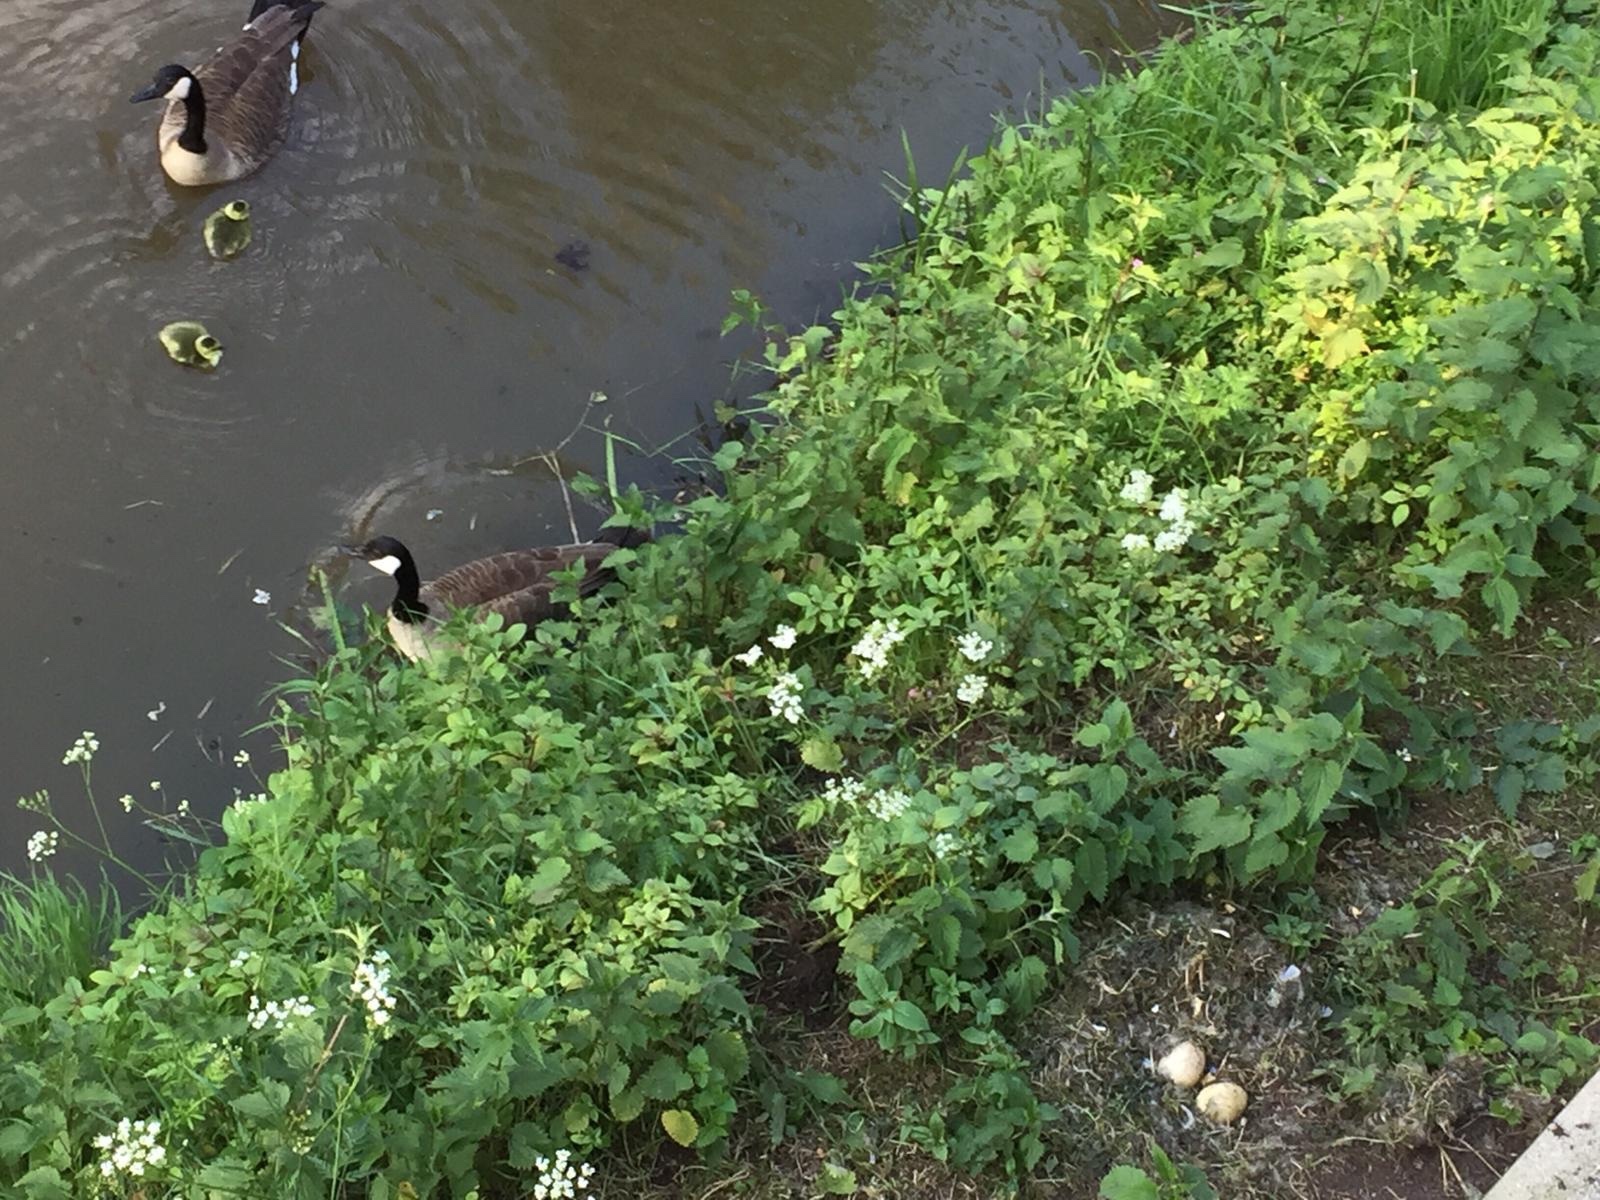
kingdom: Animalia
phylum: Chordata
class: Aves
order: Anseriformes
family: Anatidae
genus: Branta
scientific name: Branta canadensis
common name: Canada goose
